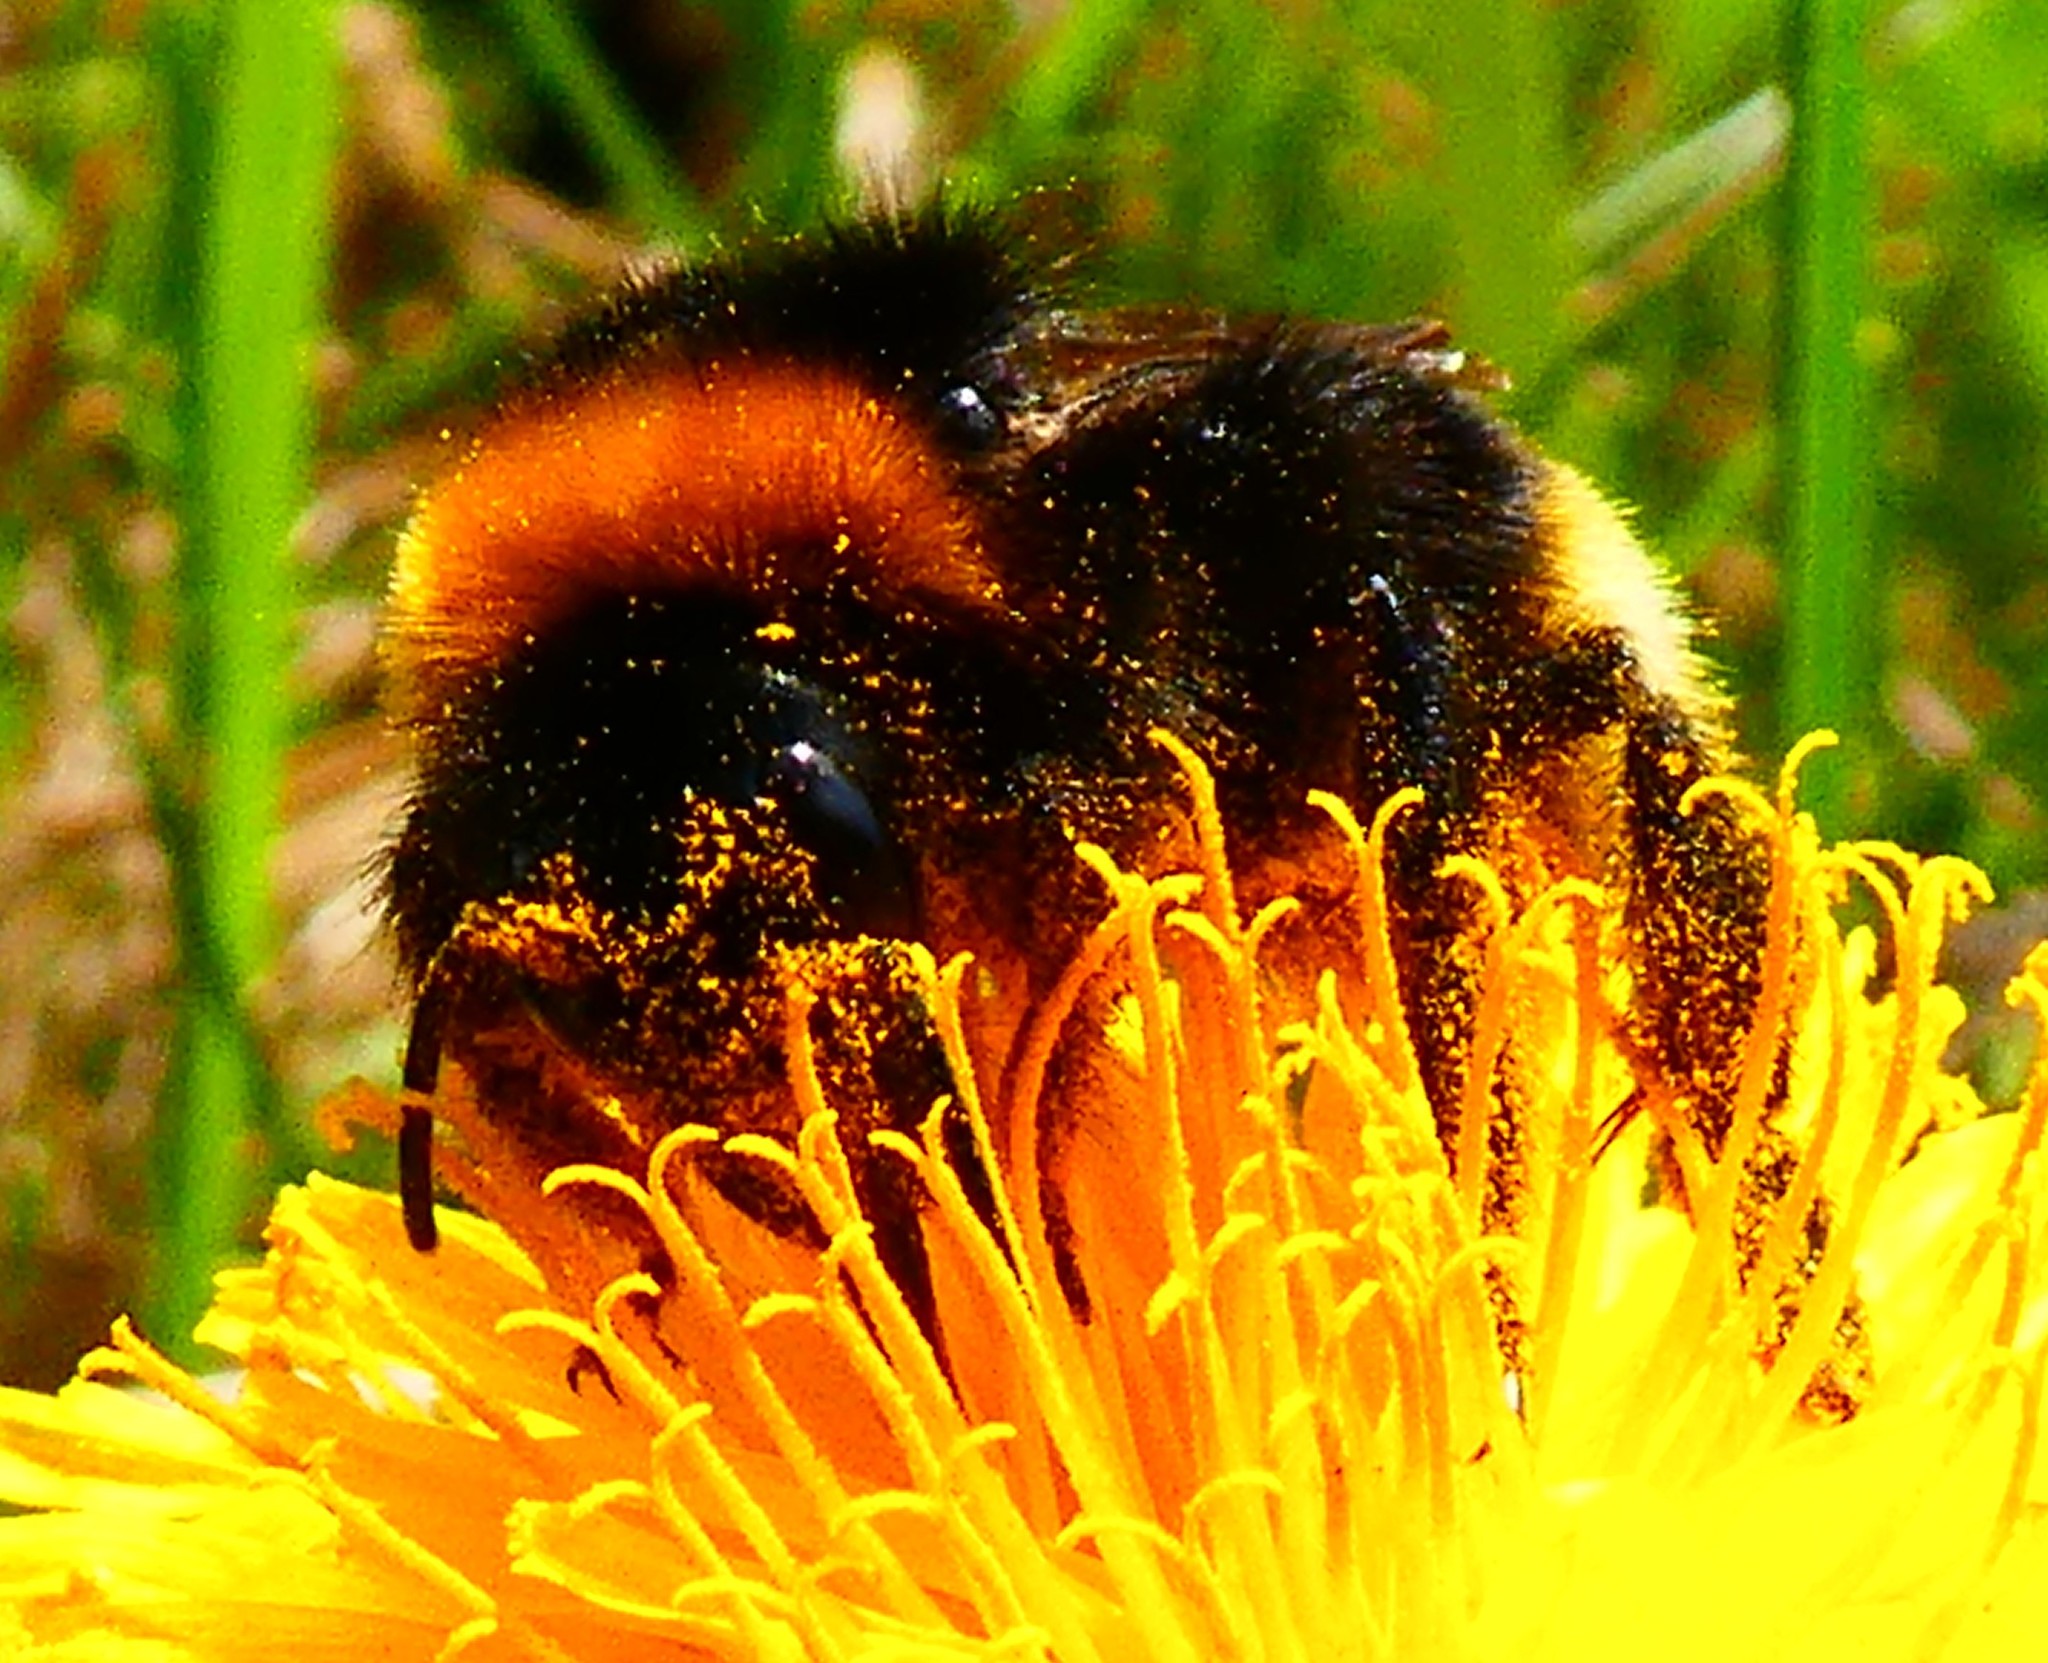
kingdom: Animalia
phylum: Arthropoda
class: Insecta
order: Hymenoptera
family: Apidae
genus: Bombus
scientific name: Bombus vestalis
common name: Vestal cuckoo bee
